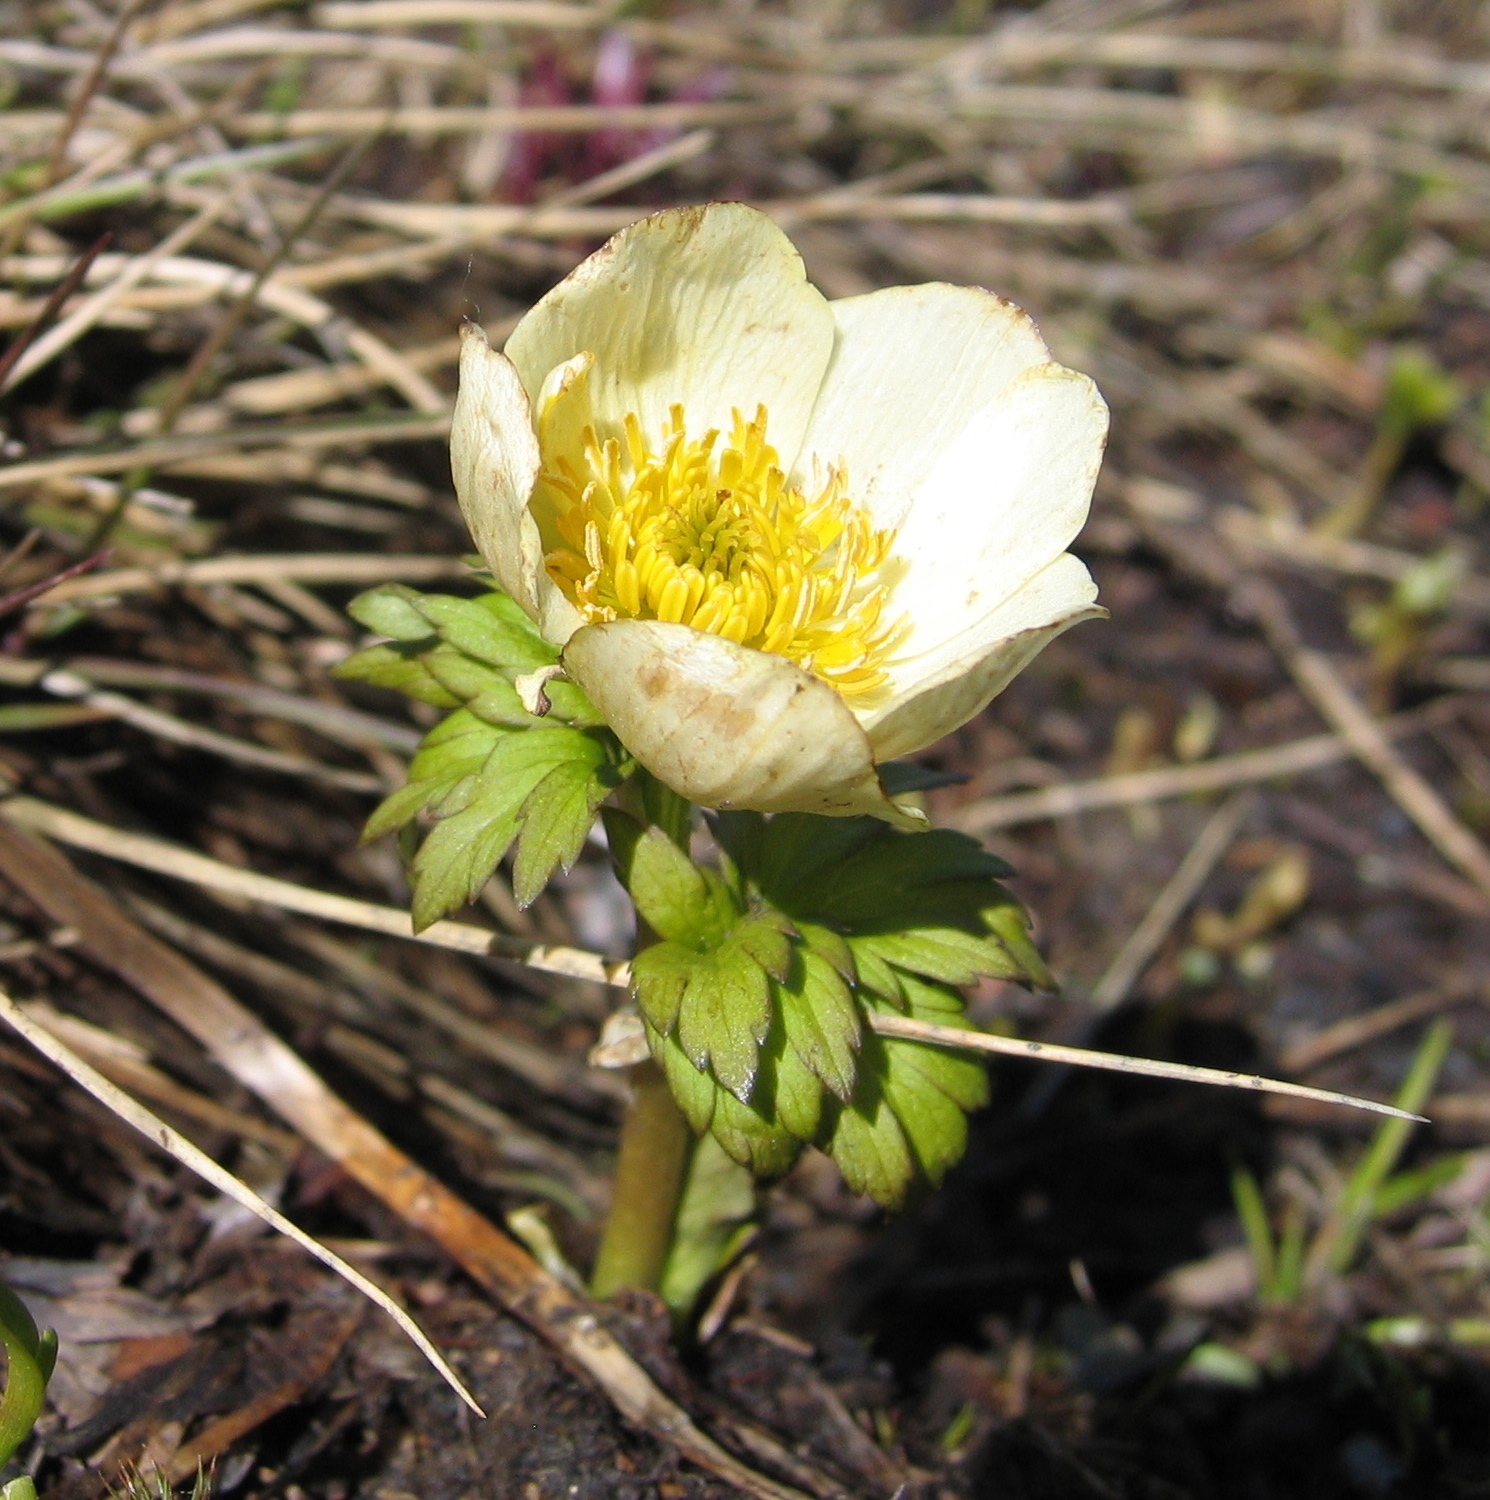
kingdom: Plantae
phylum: Tracheophyta
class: Magnoliopsida
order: Ranunculales
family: Ranunculaceae
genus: Trollius
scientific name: Trollius laxus
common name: American globeflower
